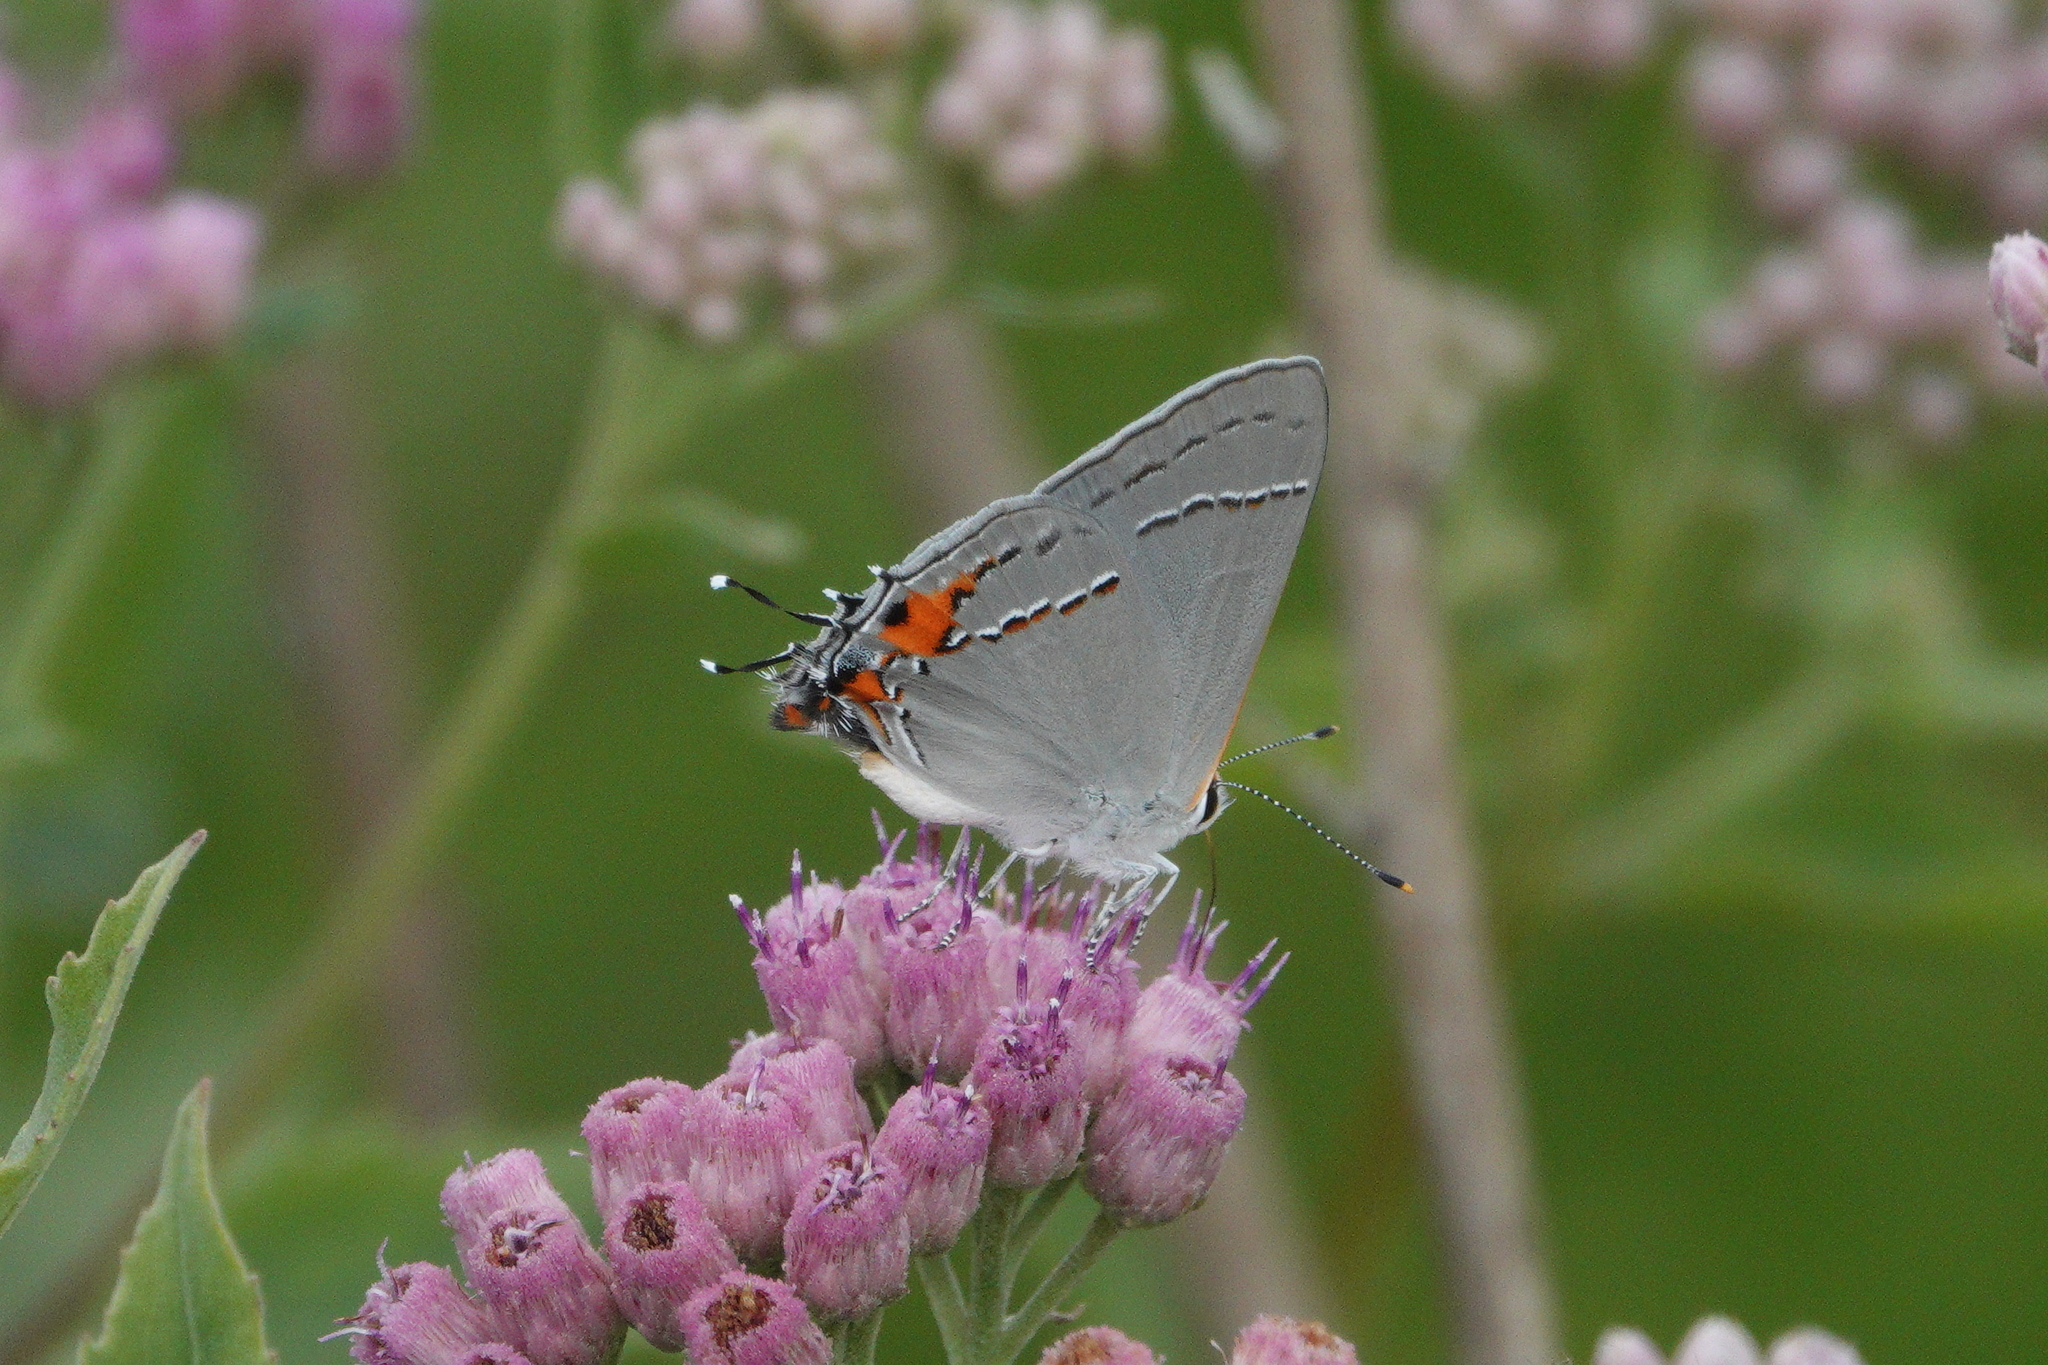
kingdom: Animalia
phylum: Arthropoda
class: Insecta
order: Lepidoptera
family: Lycaenidae
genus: Strymon
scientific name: Strymon melinus
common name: Gray hairstreak
